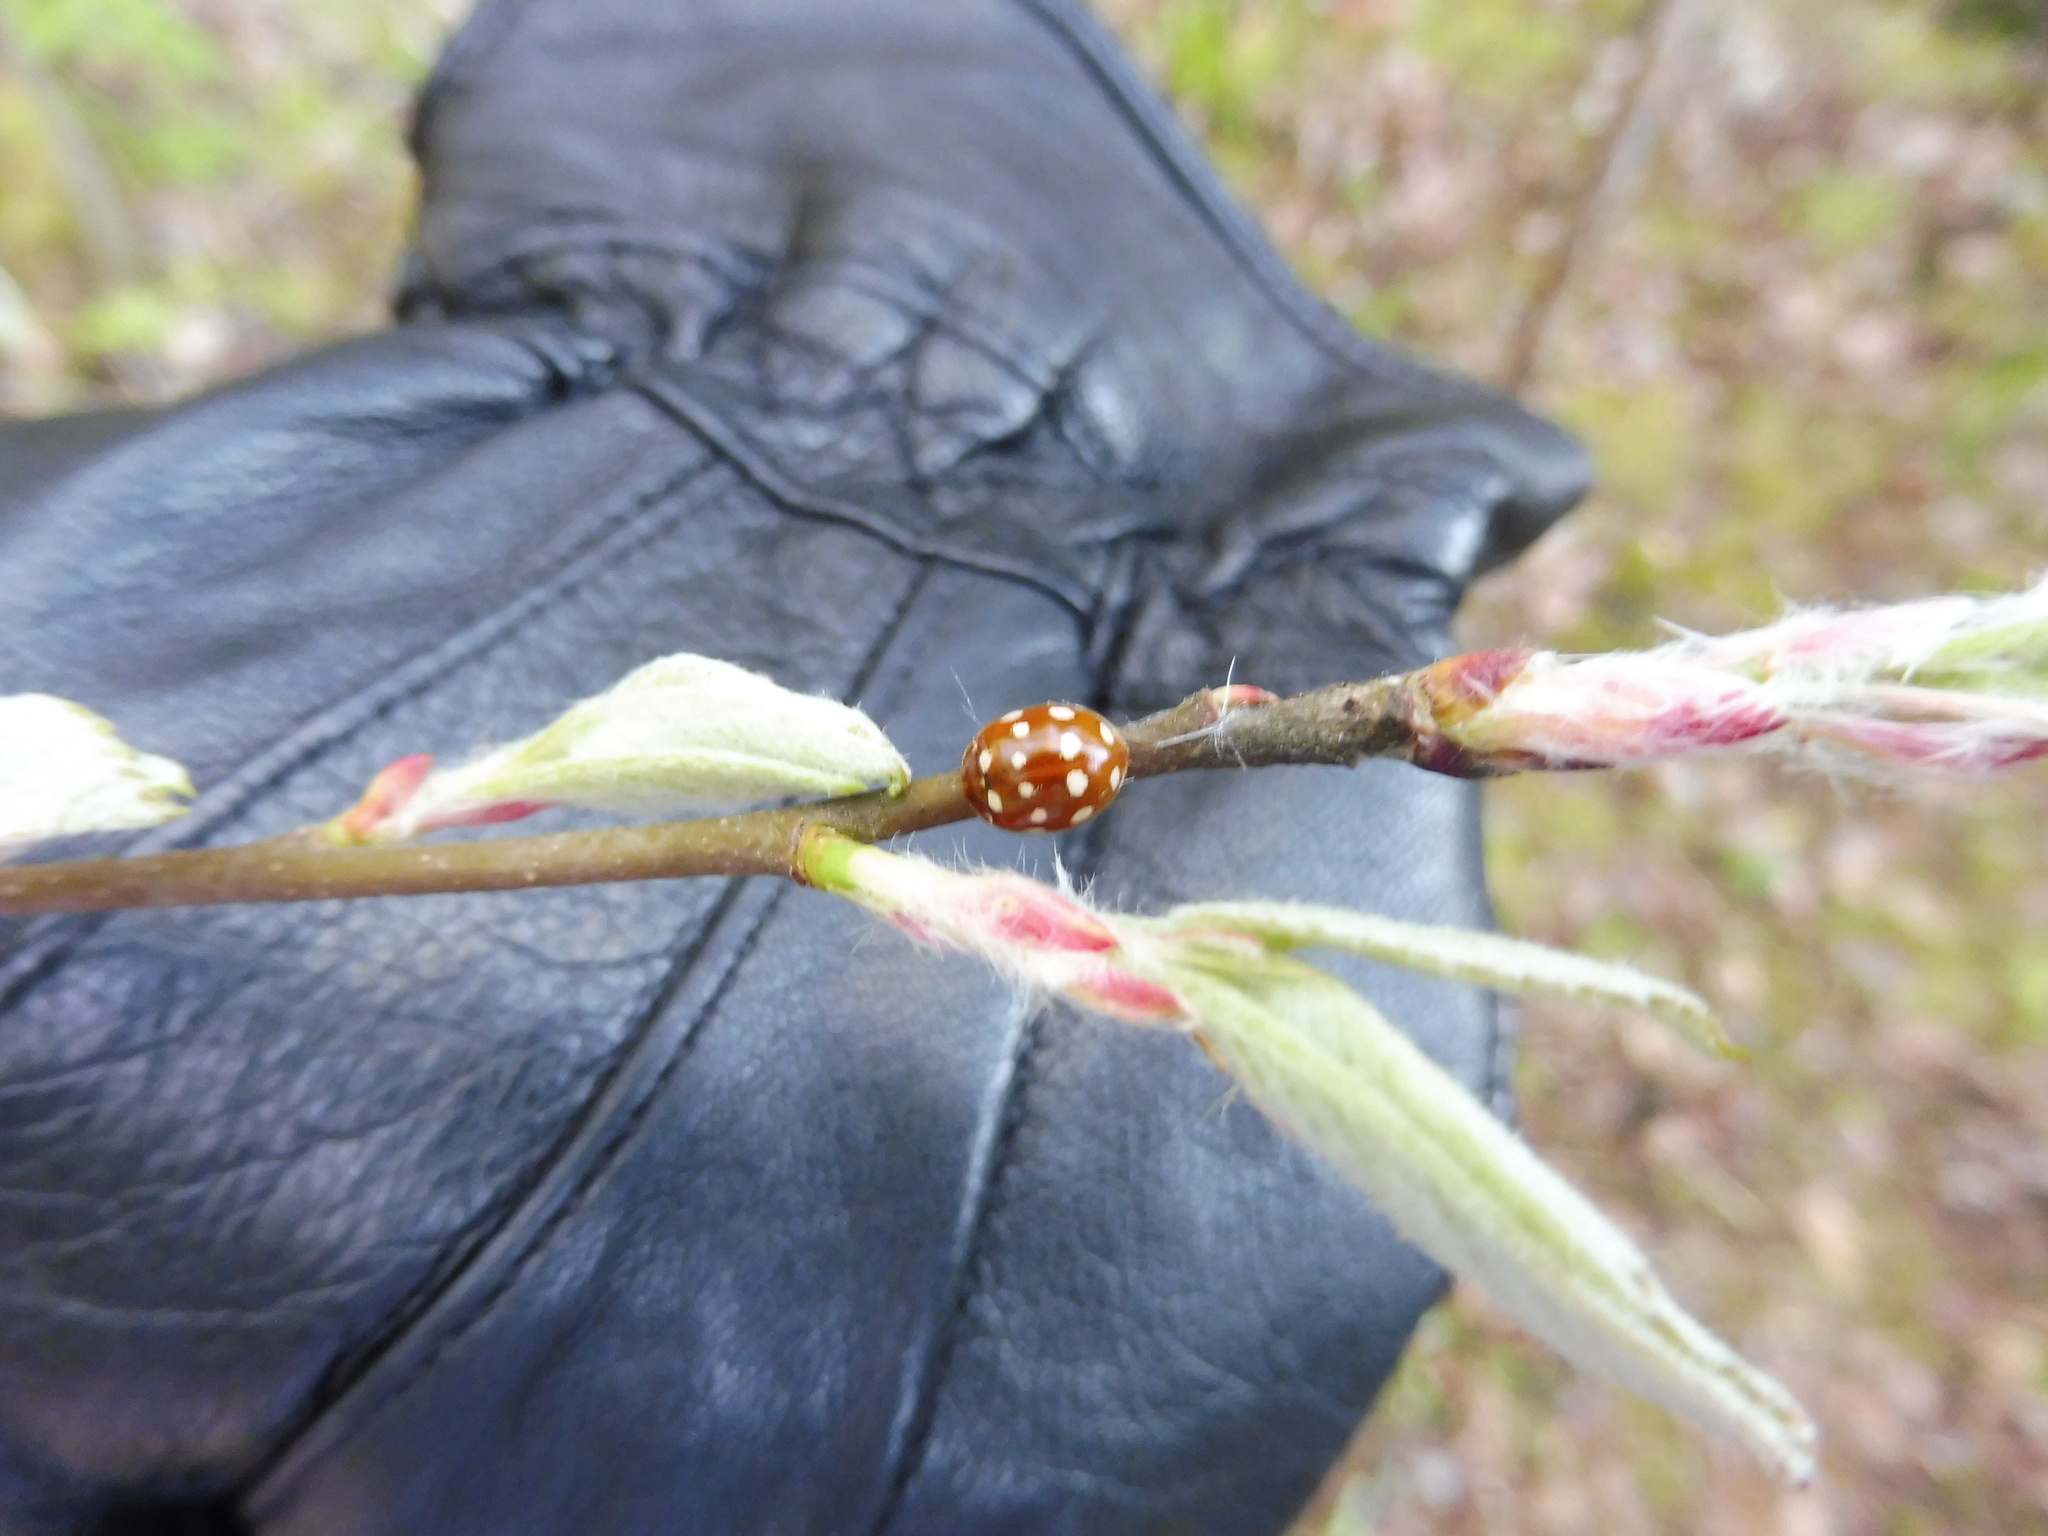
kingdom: Animalia
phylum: Arthropoda
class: Insecta
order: Coleoptera
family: Coccinellidae
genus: Calvia
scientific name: Calvia quatuordecimguttata
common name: Cream-spot ladybird
